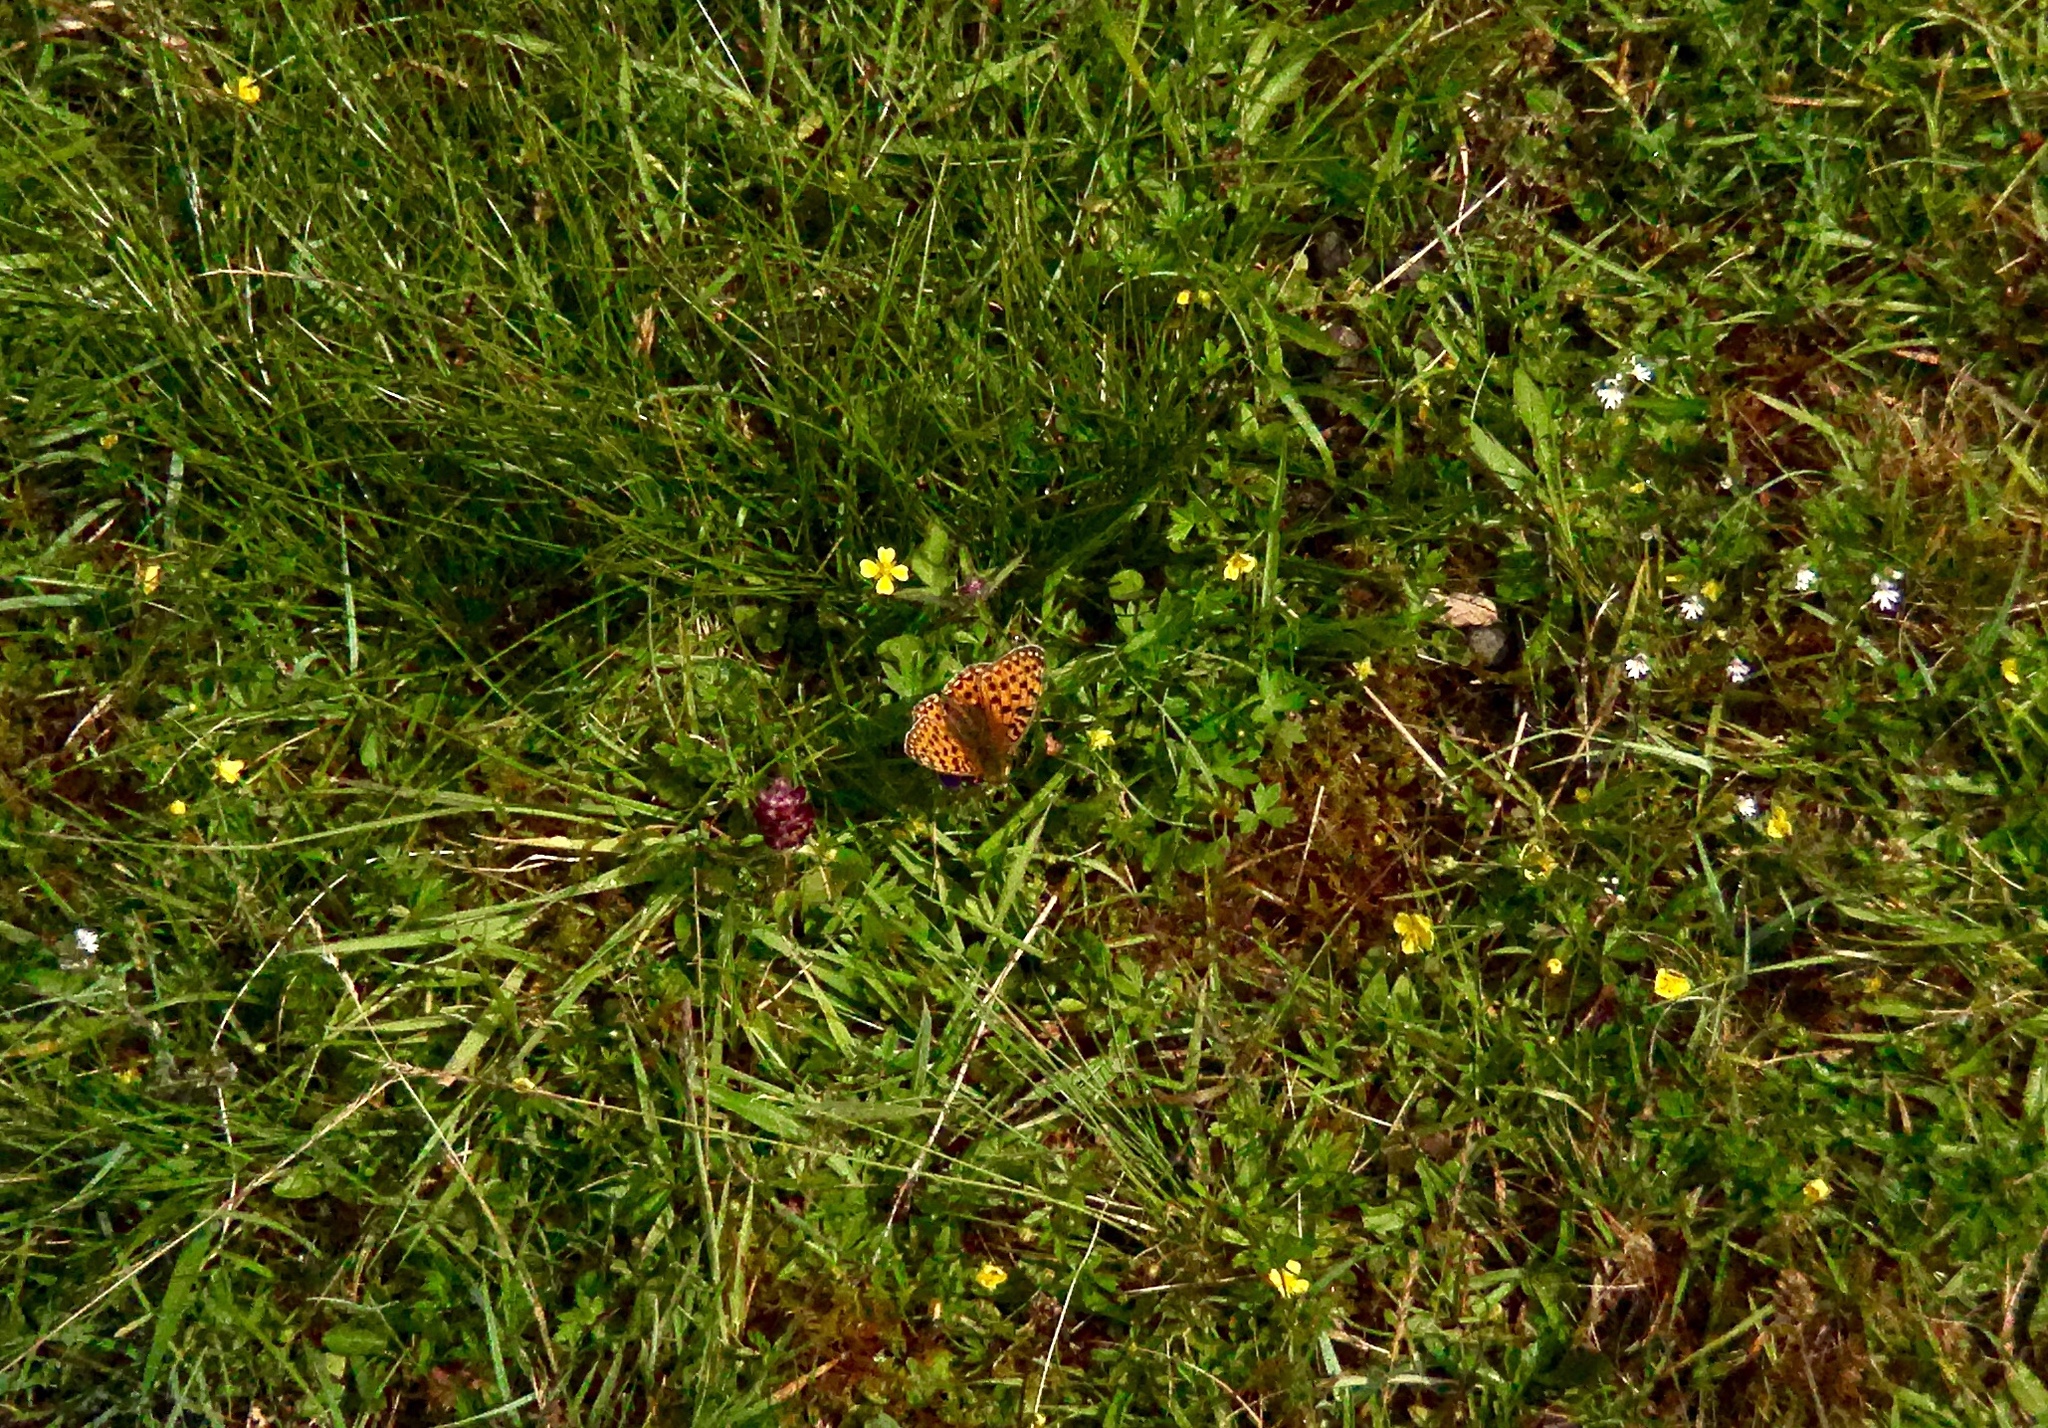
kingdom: Animalia
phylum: Arthropoda
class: Insecta
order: Lepidoptera
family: Nymphalidae
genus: Speyeria
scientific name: Speyeria aglaja
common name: Dark green fritillary
